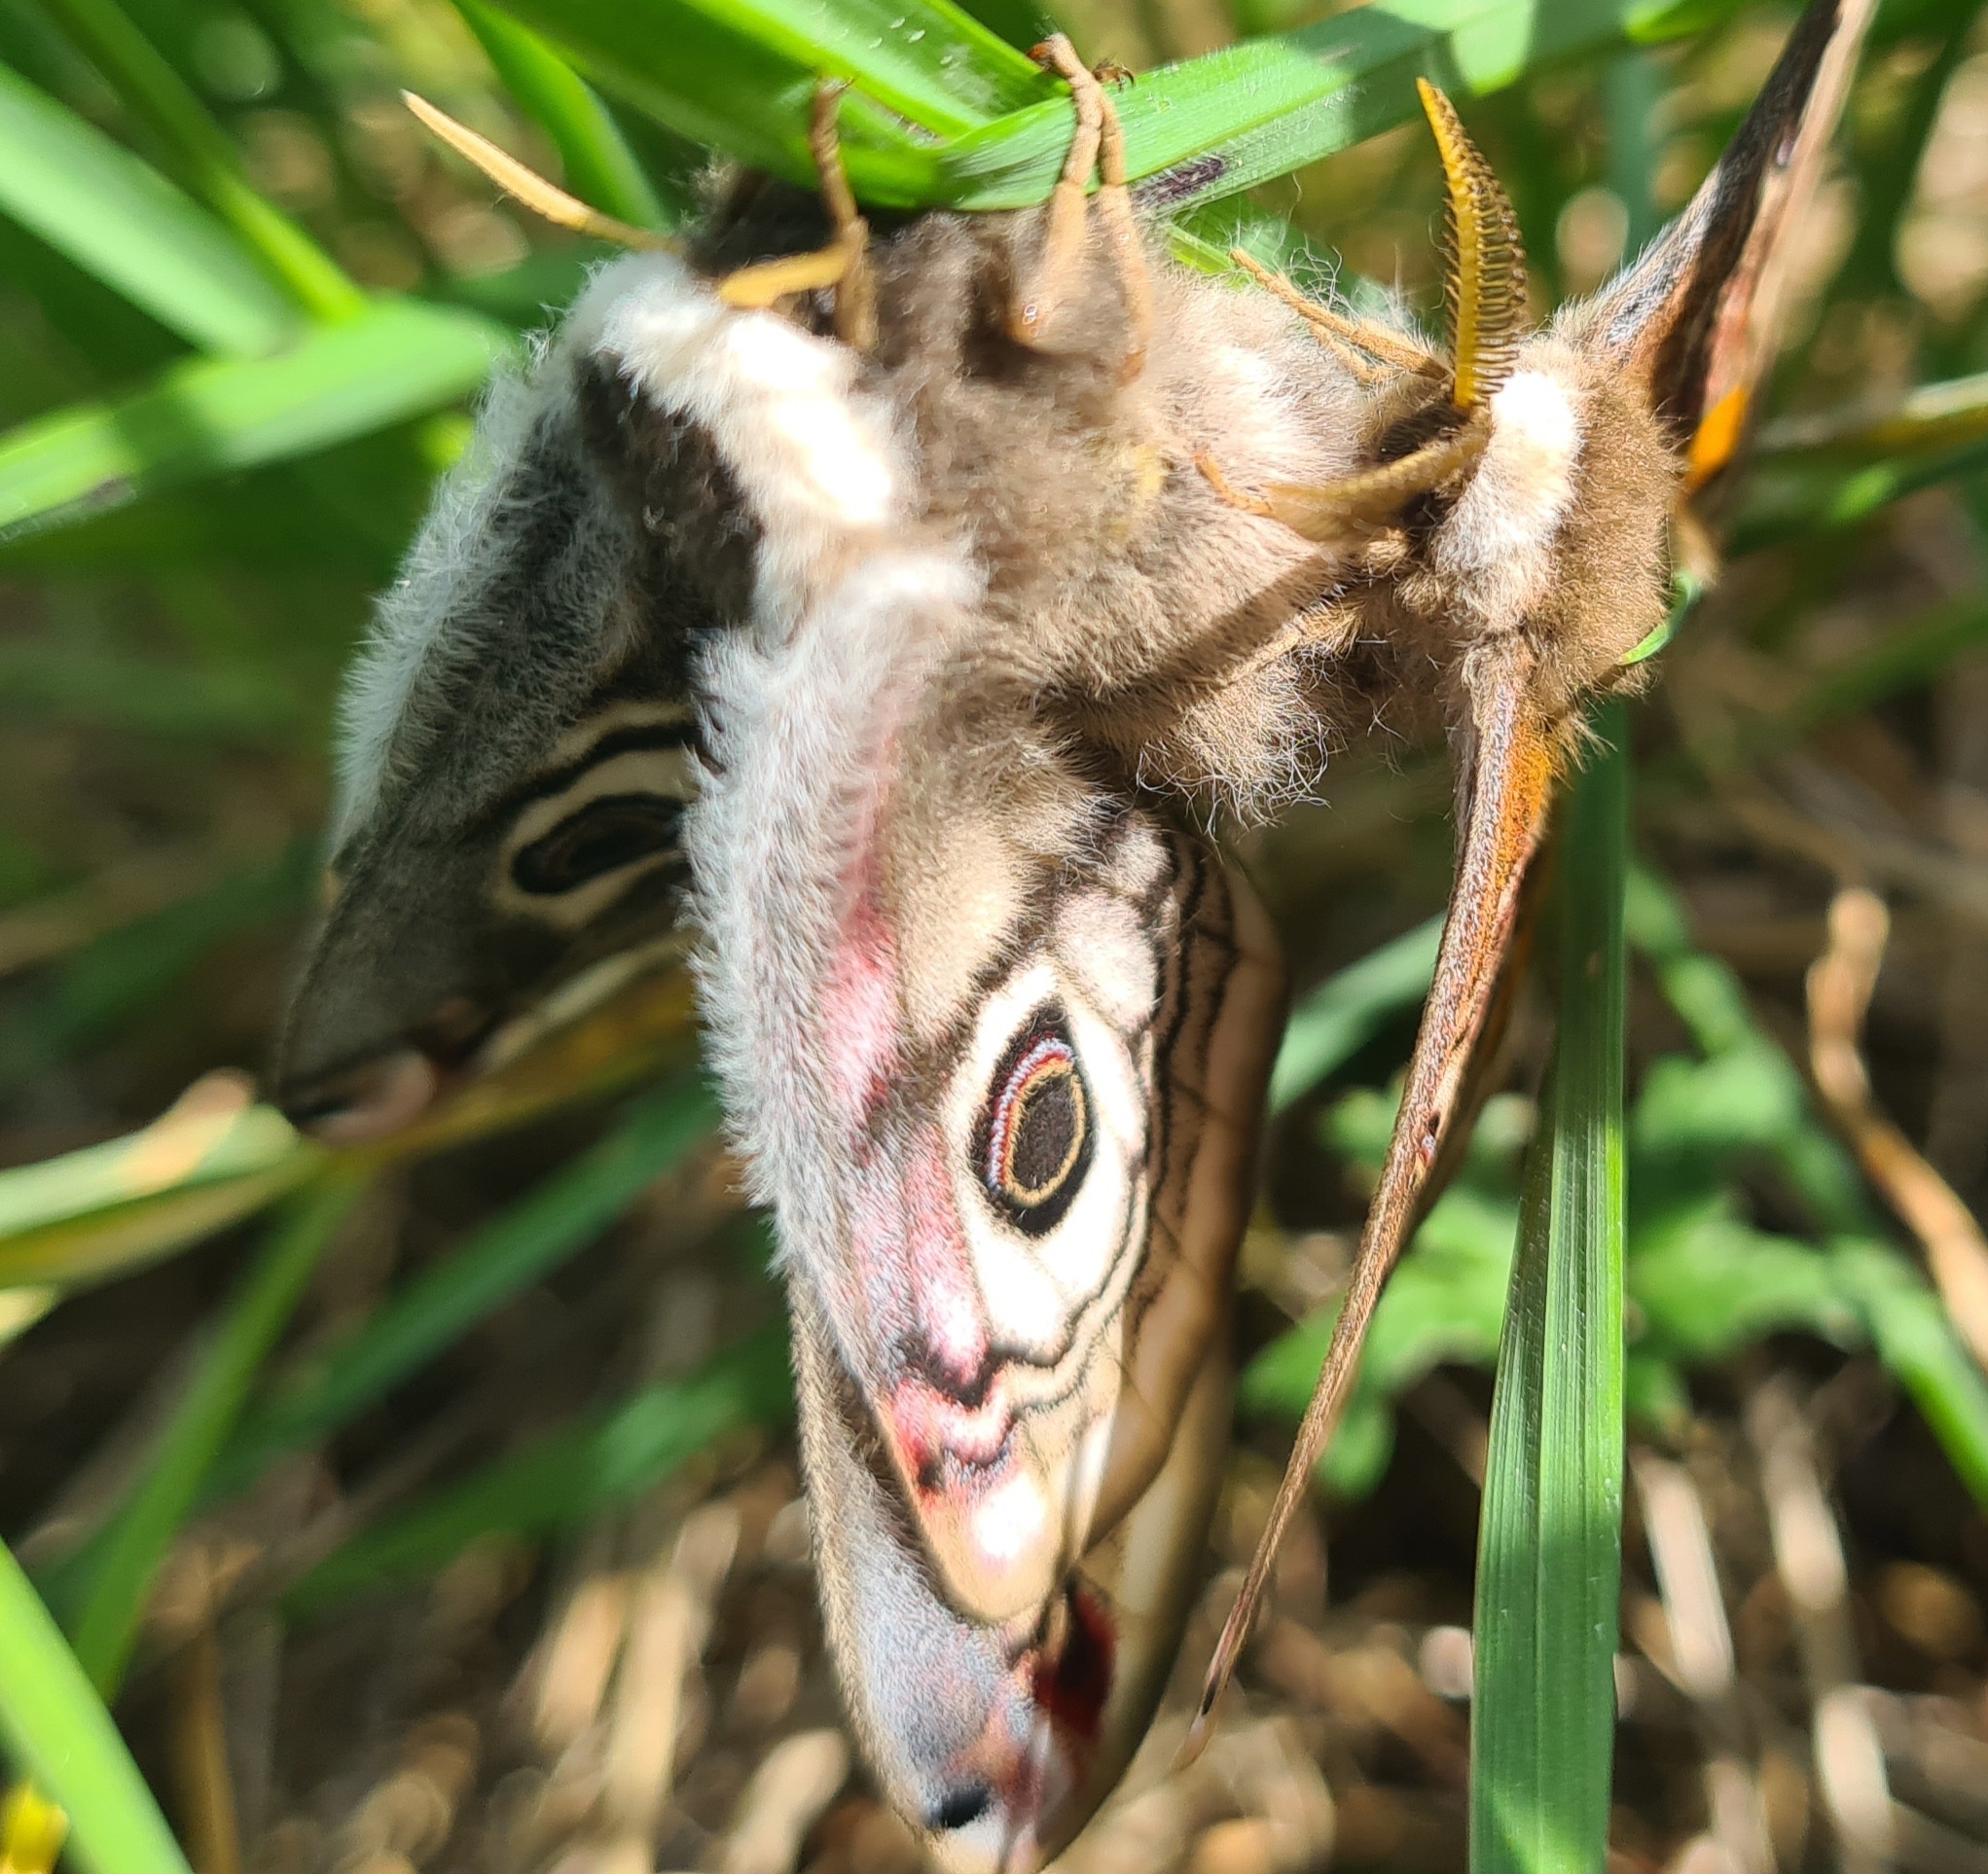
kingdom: Animalia
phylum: Arthropoda
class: Insecta
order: Lepidoptera
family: Saturniidae
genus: Saturnia
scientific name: Saturnia pavoniella
